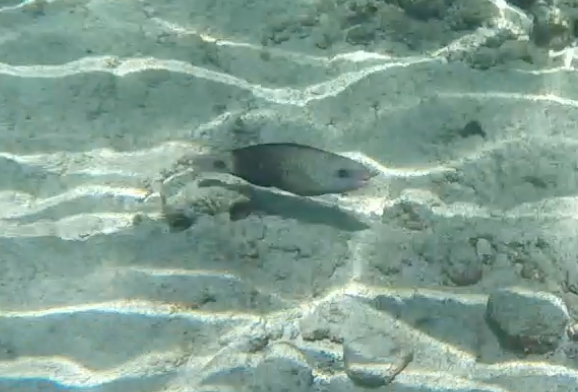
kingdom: Animalia
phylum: Chordata
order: Perciformes
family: Scaridae
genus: Chlorurus
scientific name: Chlorurus spilurus
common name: Bullethead parrotfish
